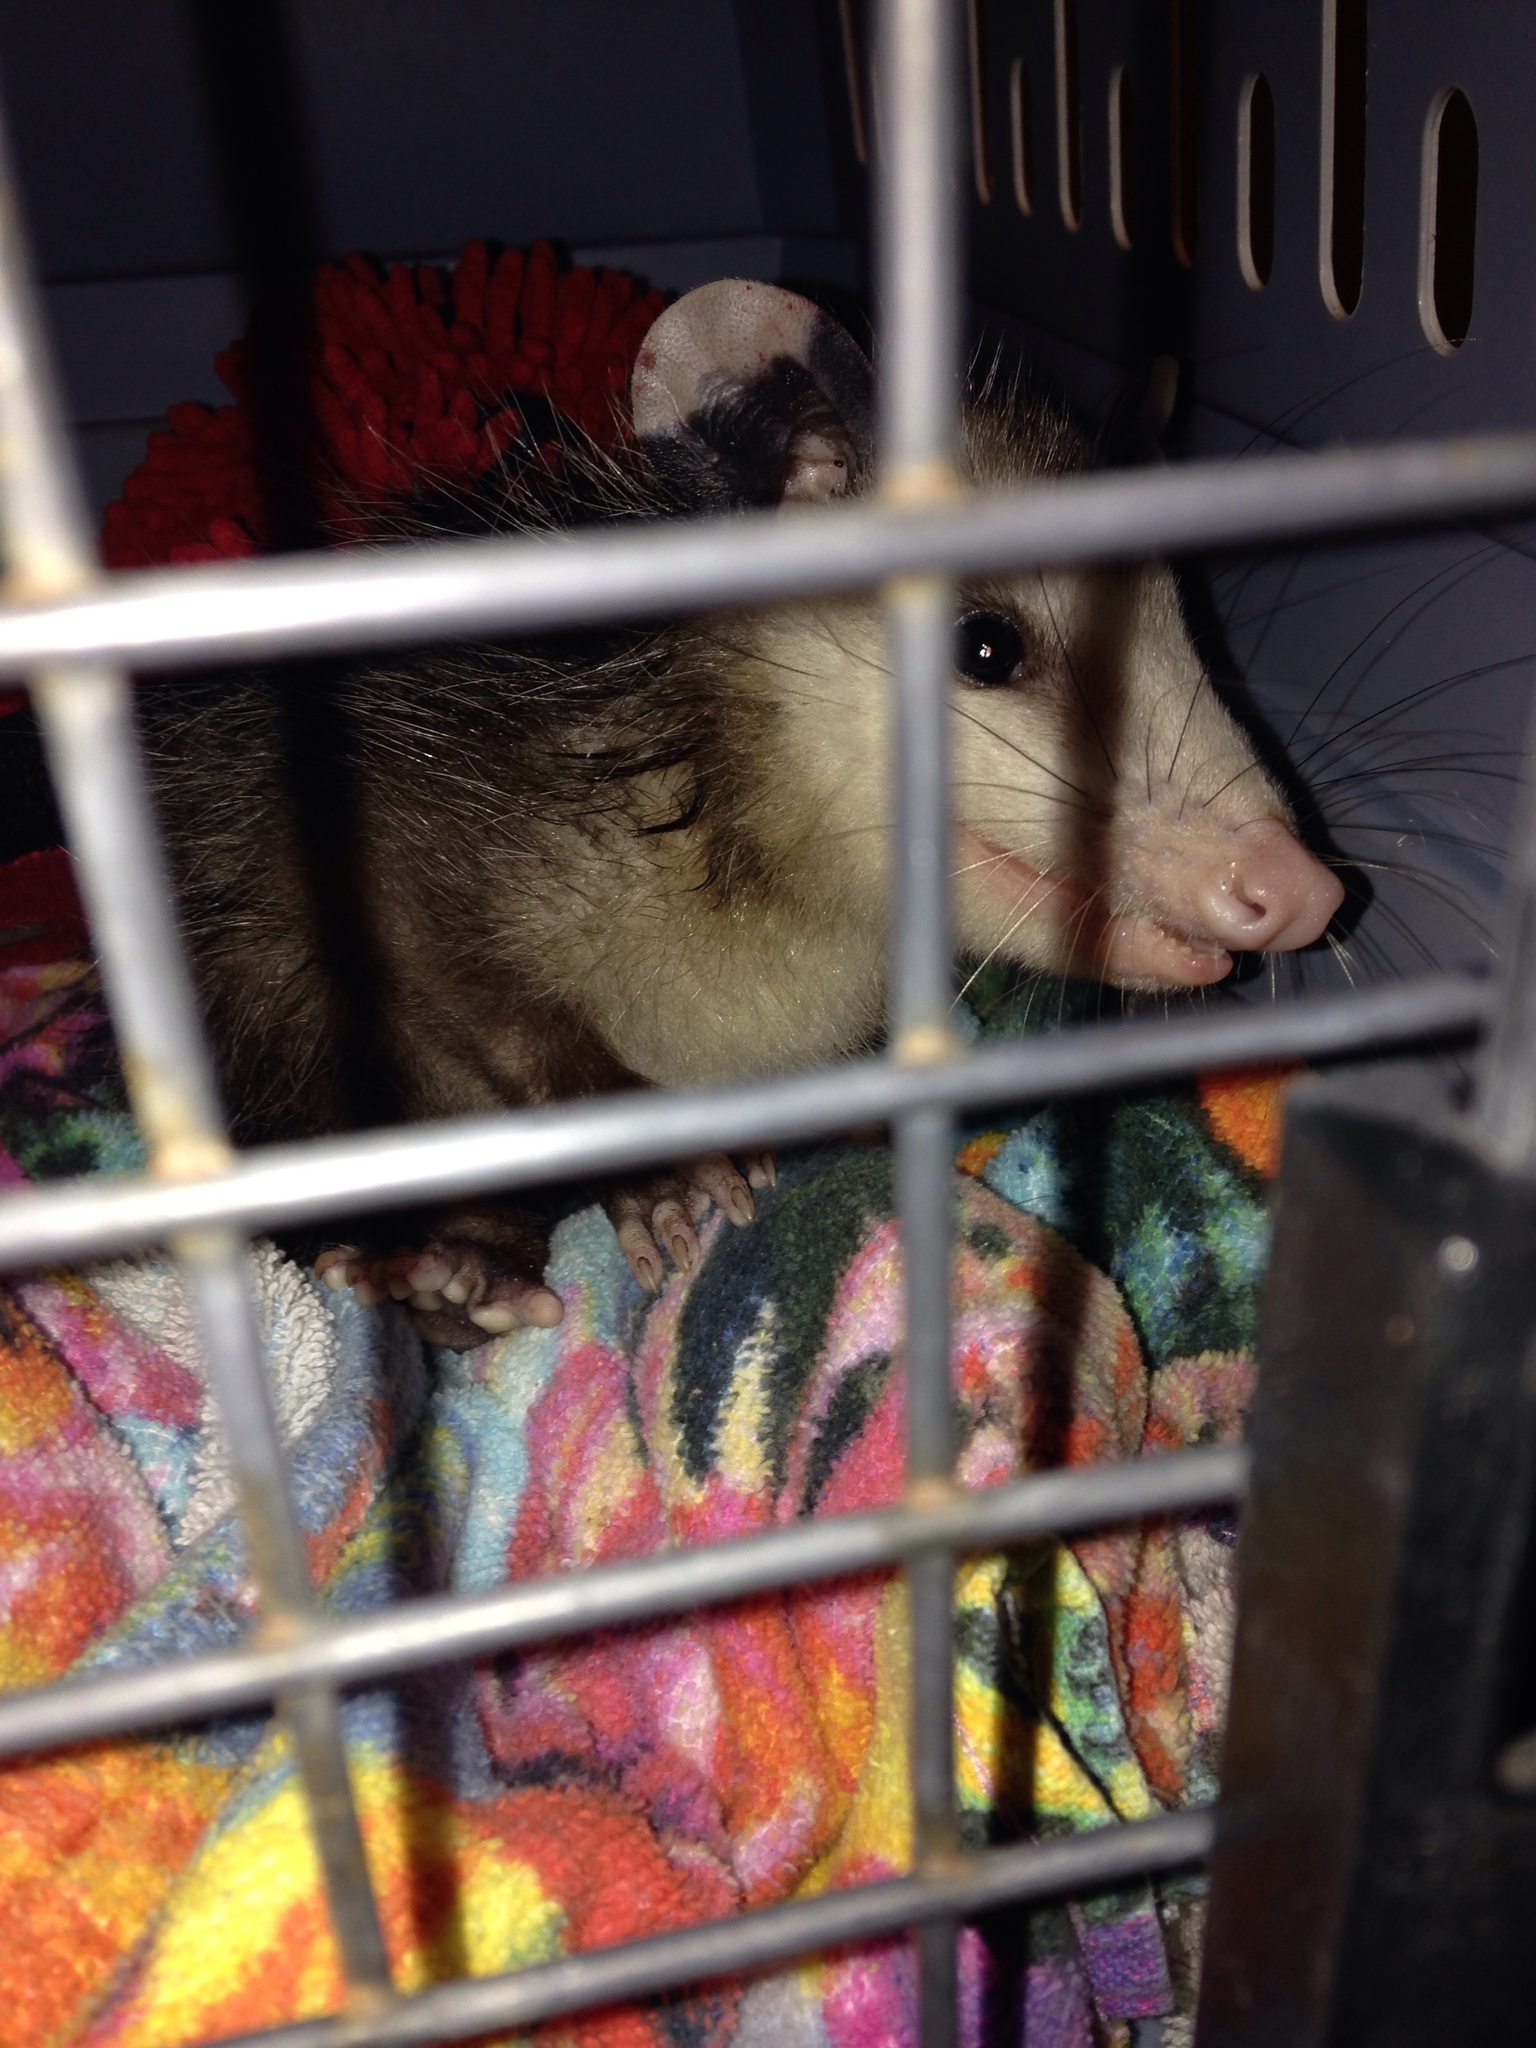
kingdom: Animalia
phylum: Chordata
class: Mammalia
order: Didelphimorphia
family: Didelphidae
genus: Didelphis
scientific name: Didelphis virginiana
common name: Virginia opossum
